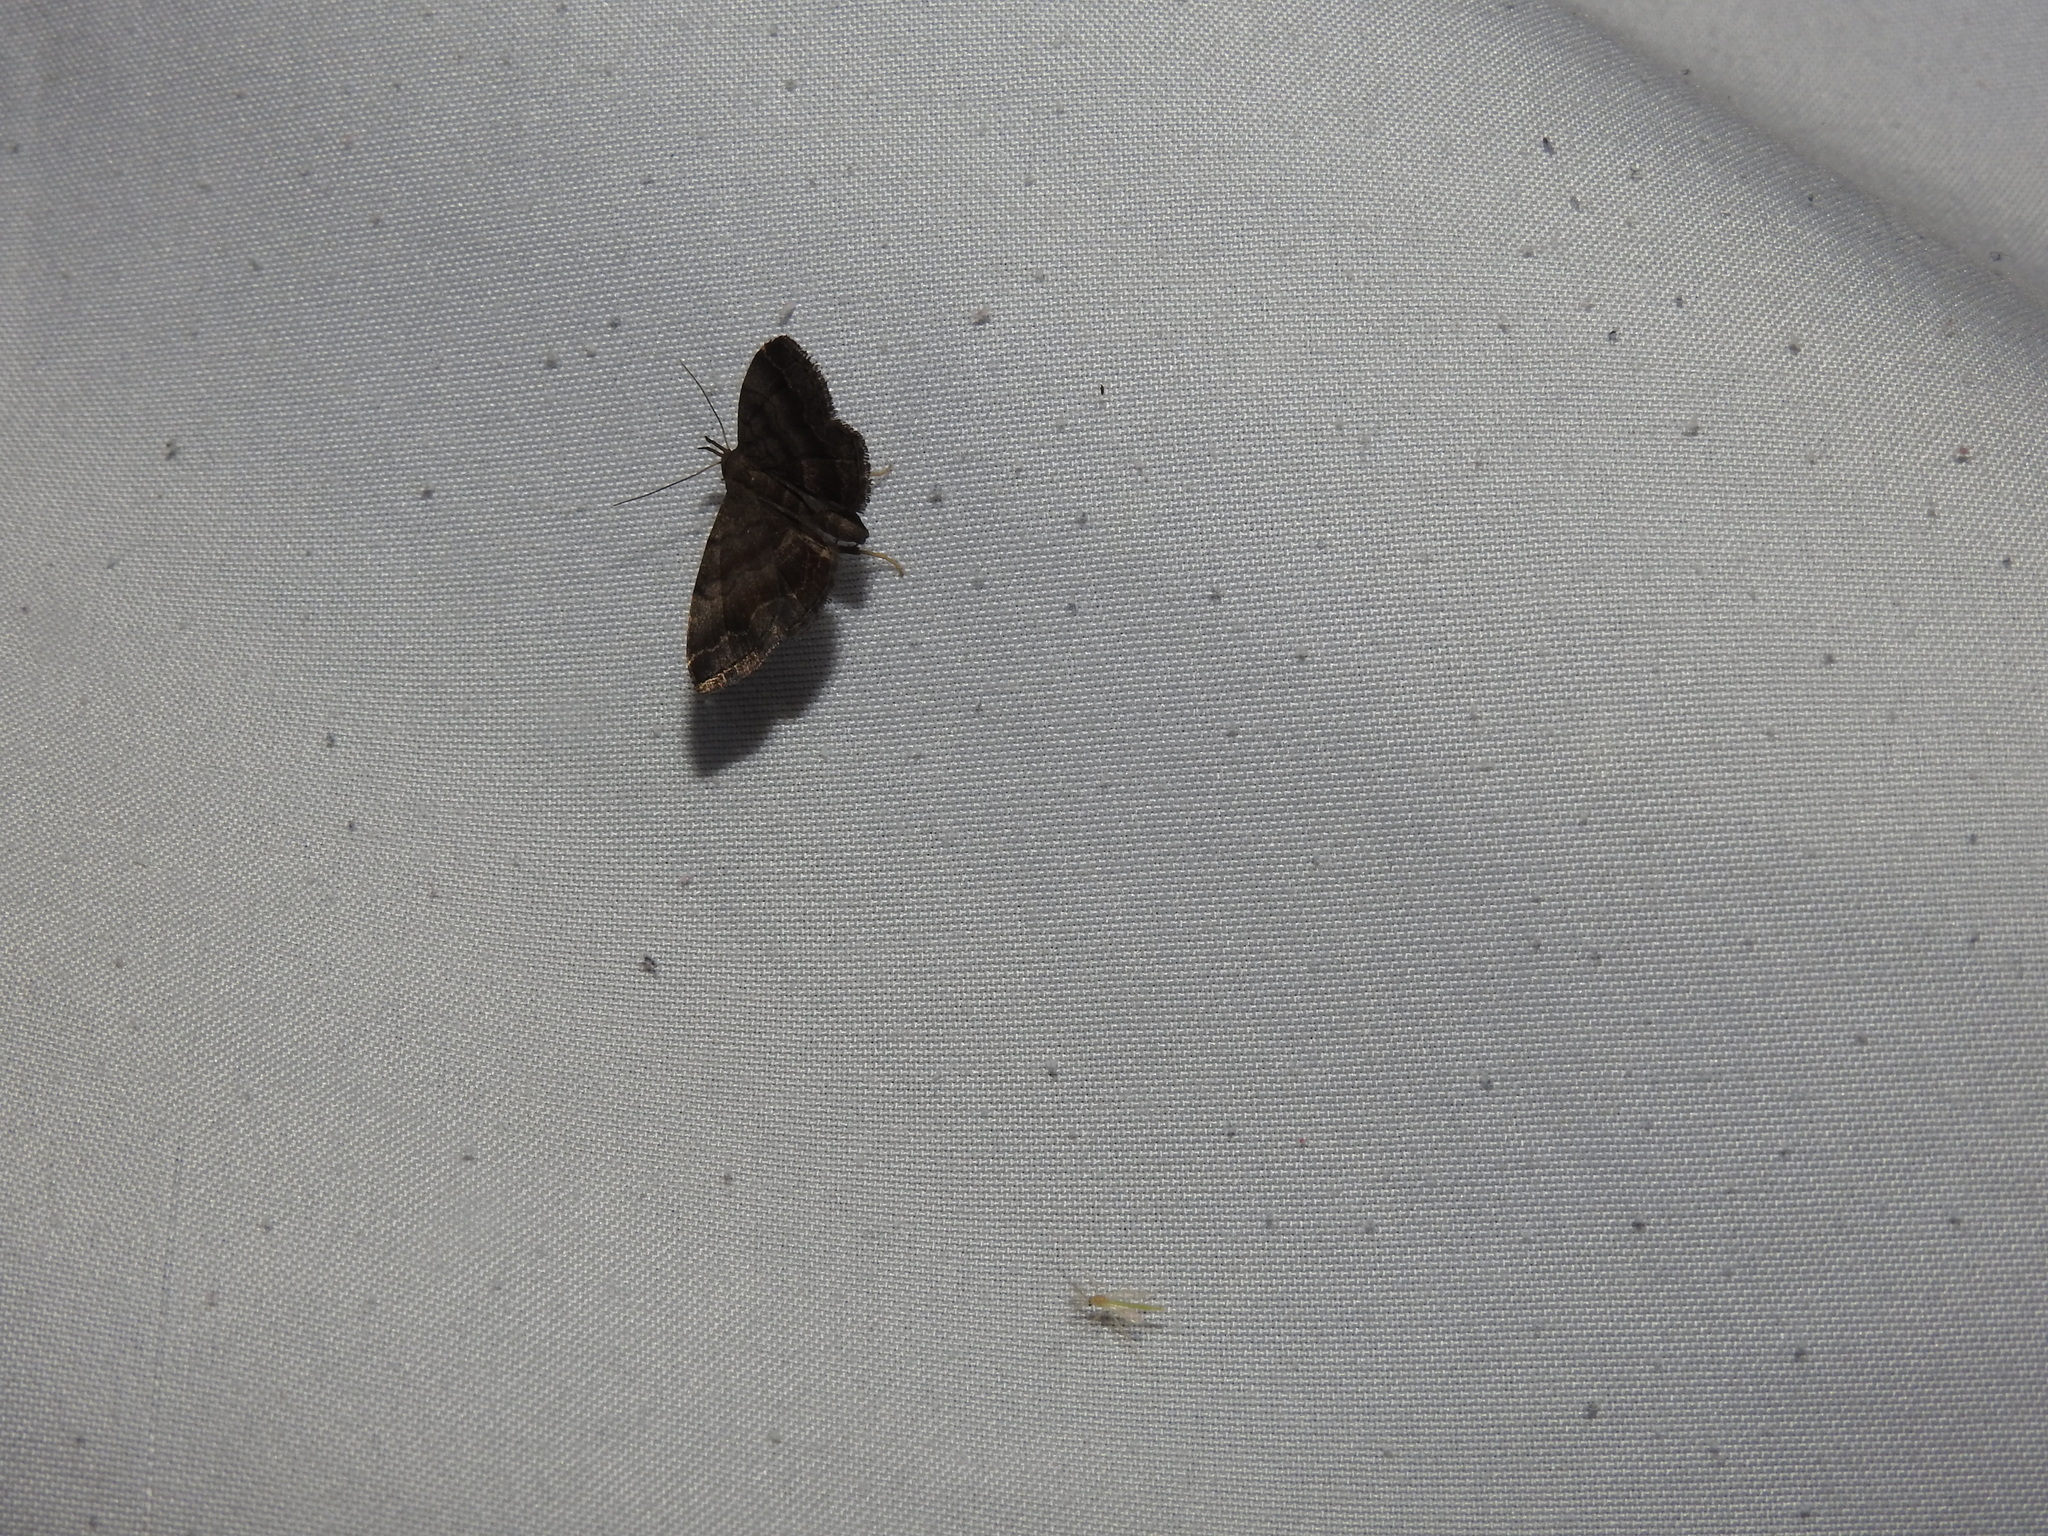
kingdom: Animalia
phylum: Arthropoda
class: Insecta
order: Lepidoptera
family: Erebidae
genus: Phalaenostola
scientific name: Phalaenostola larentioides
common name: Black-banded owlet
